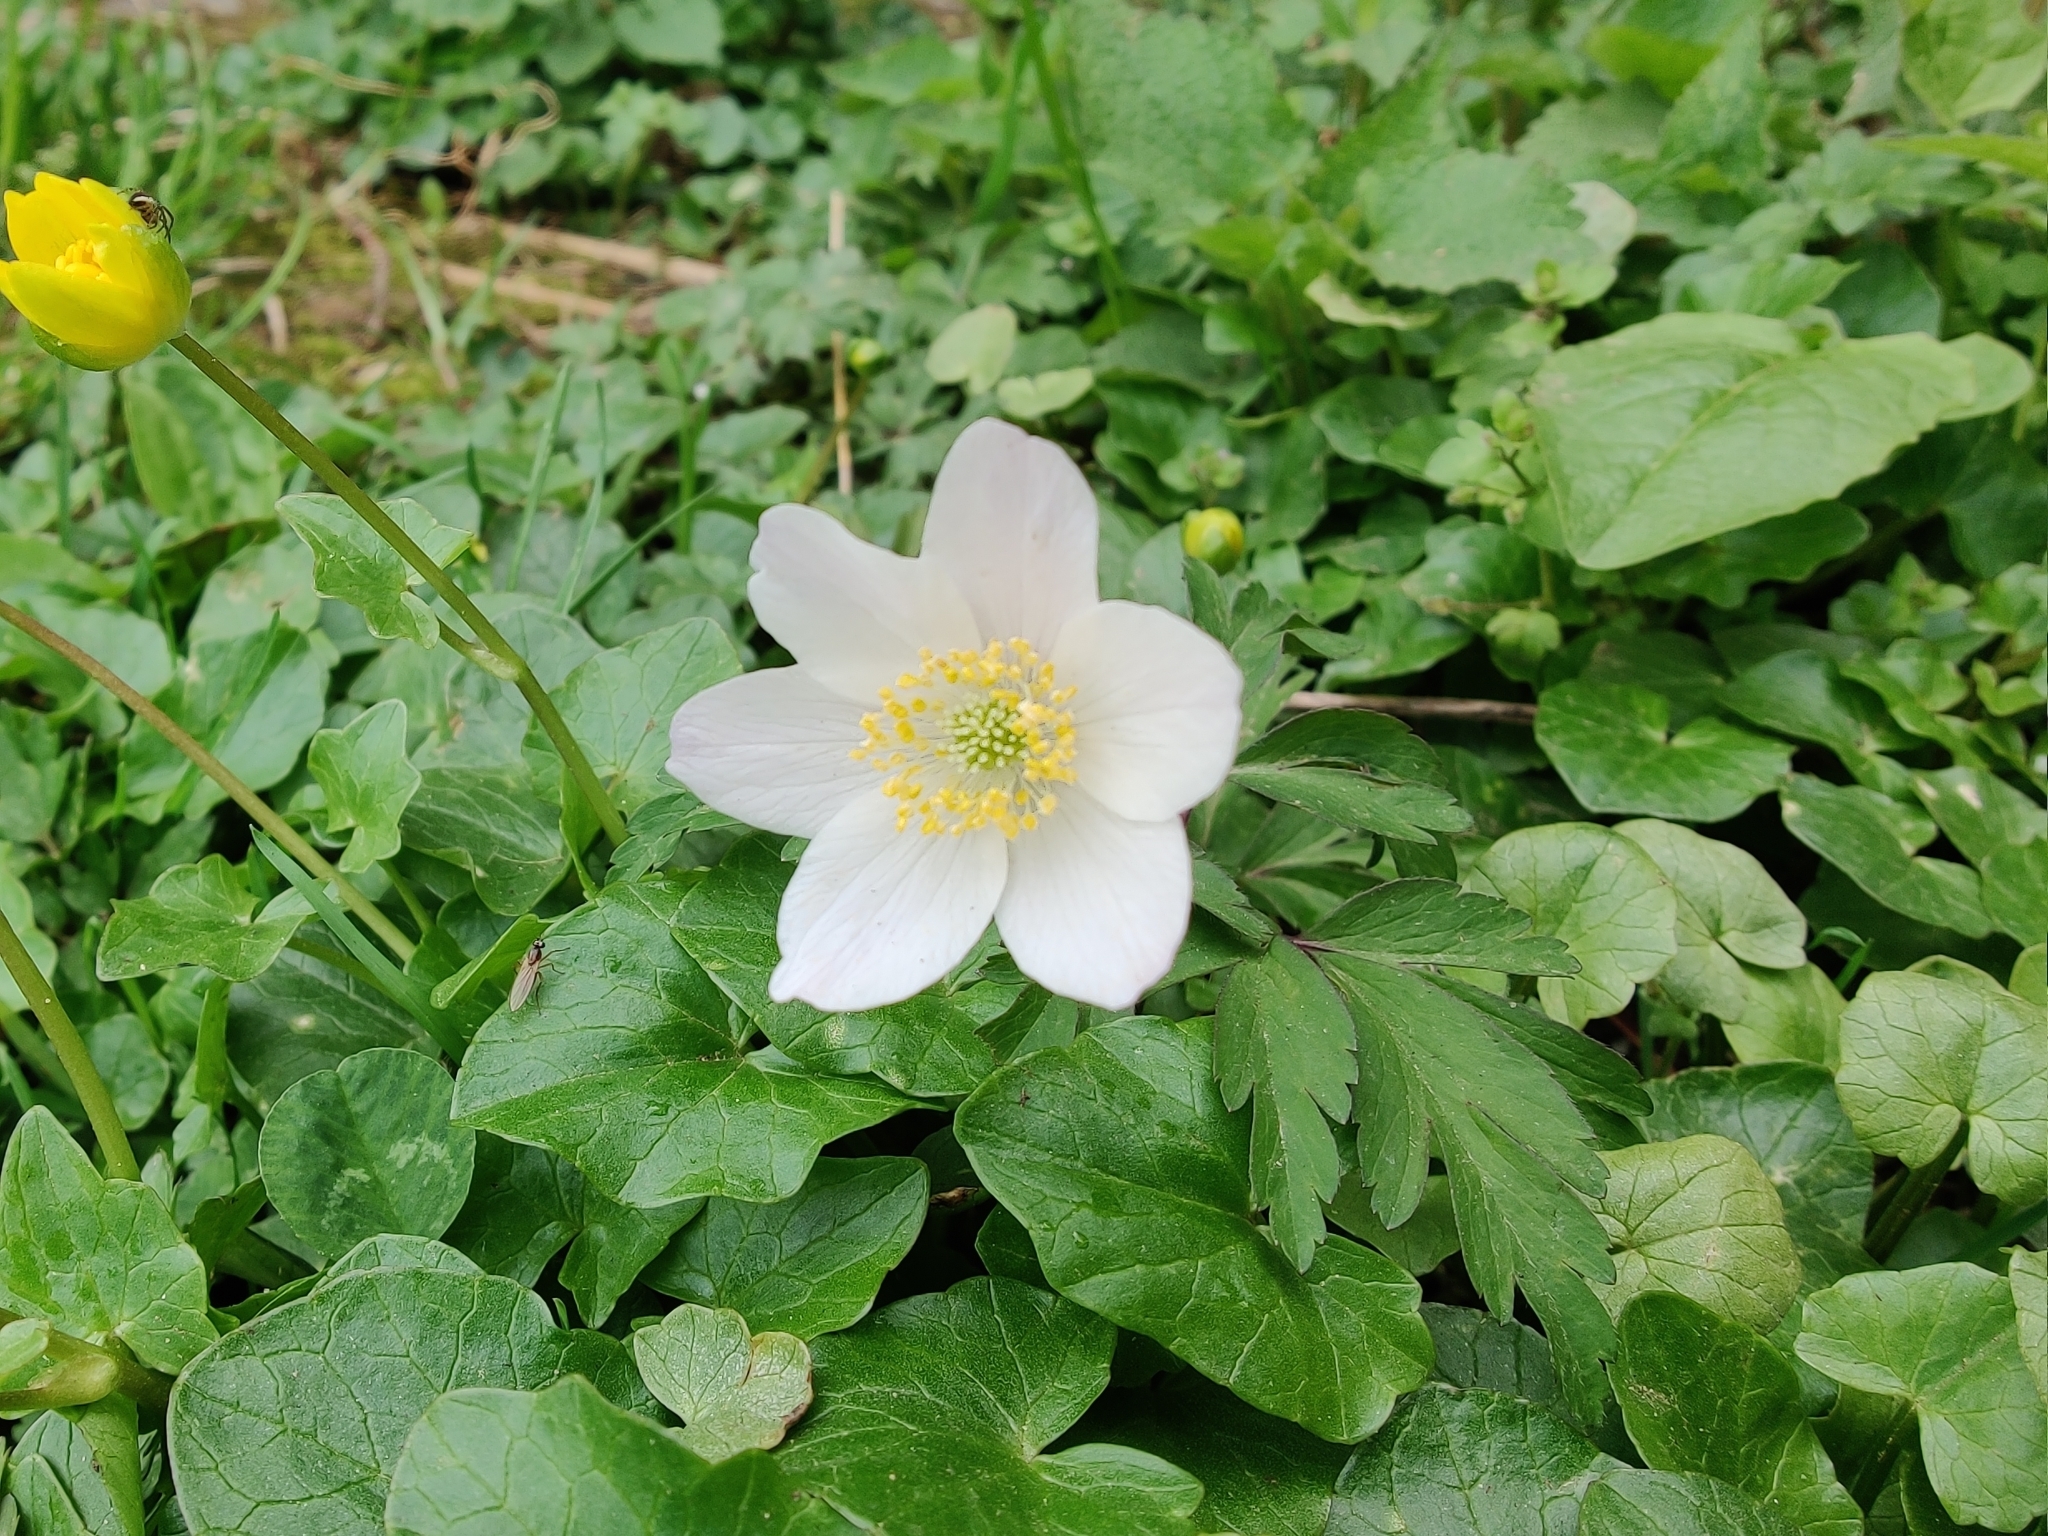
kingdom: Plantae
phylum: Tracheophyta
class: Magnoliopsida
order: Ranunculales
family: Ranunculaceae
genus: Anemone
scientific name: Anemone nemorosa
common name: Wood anemone
